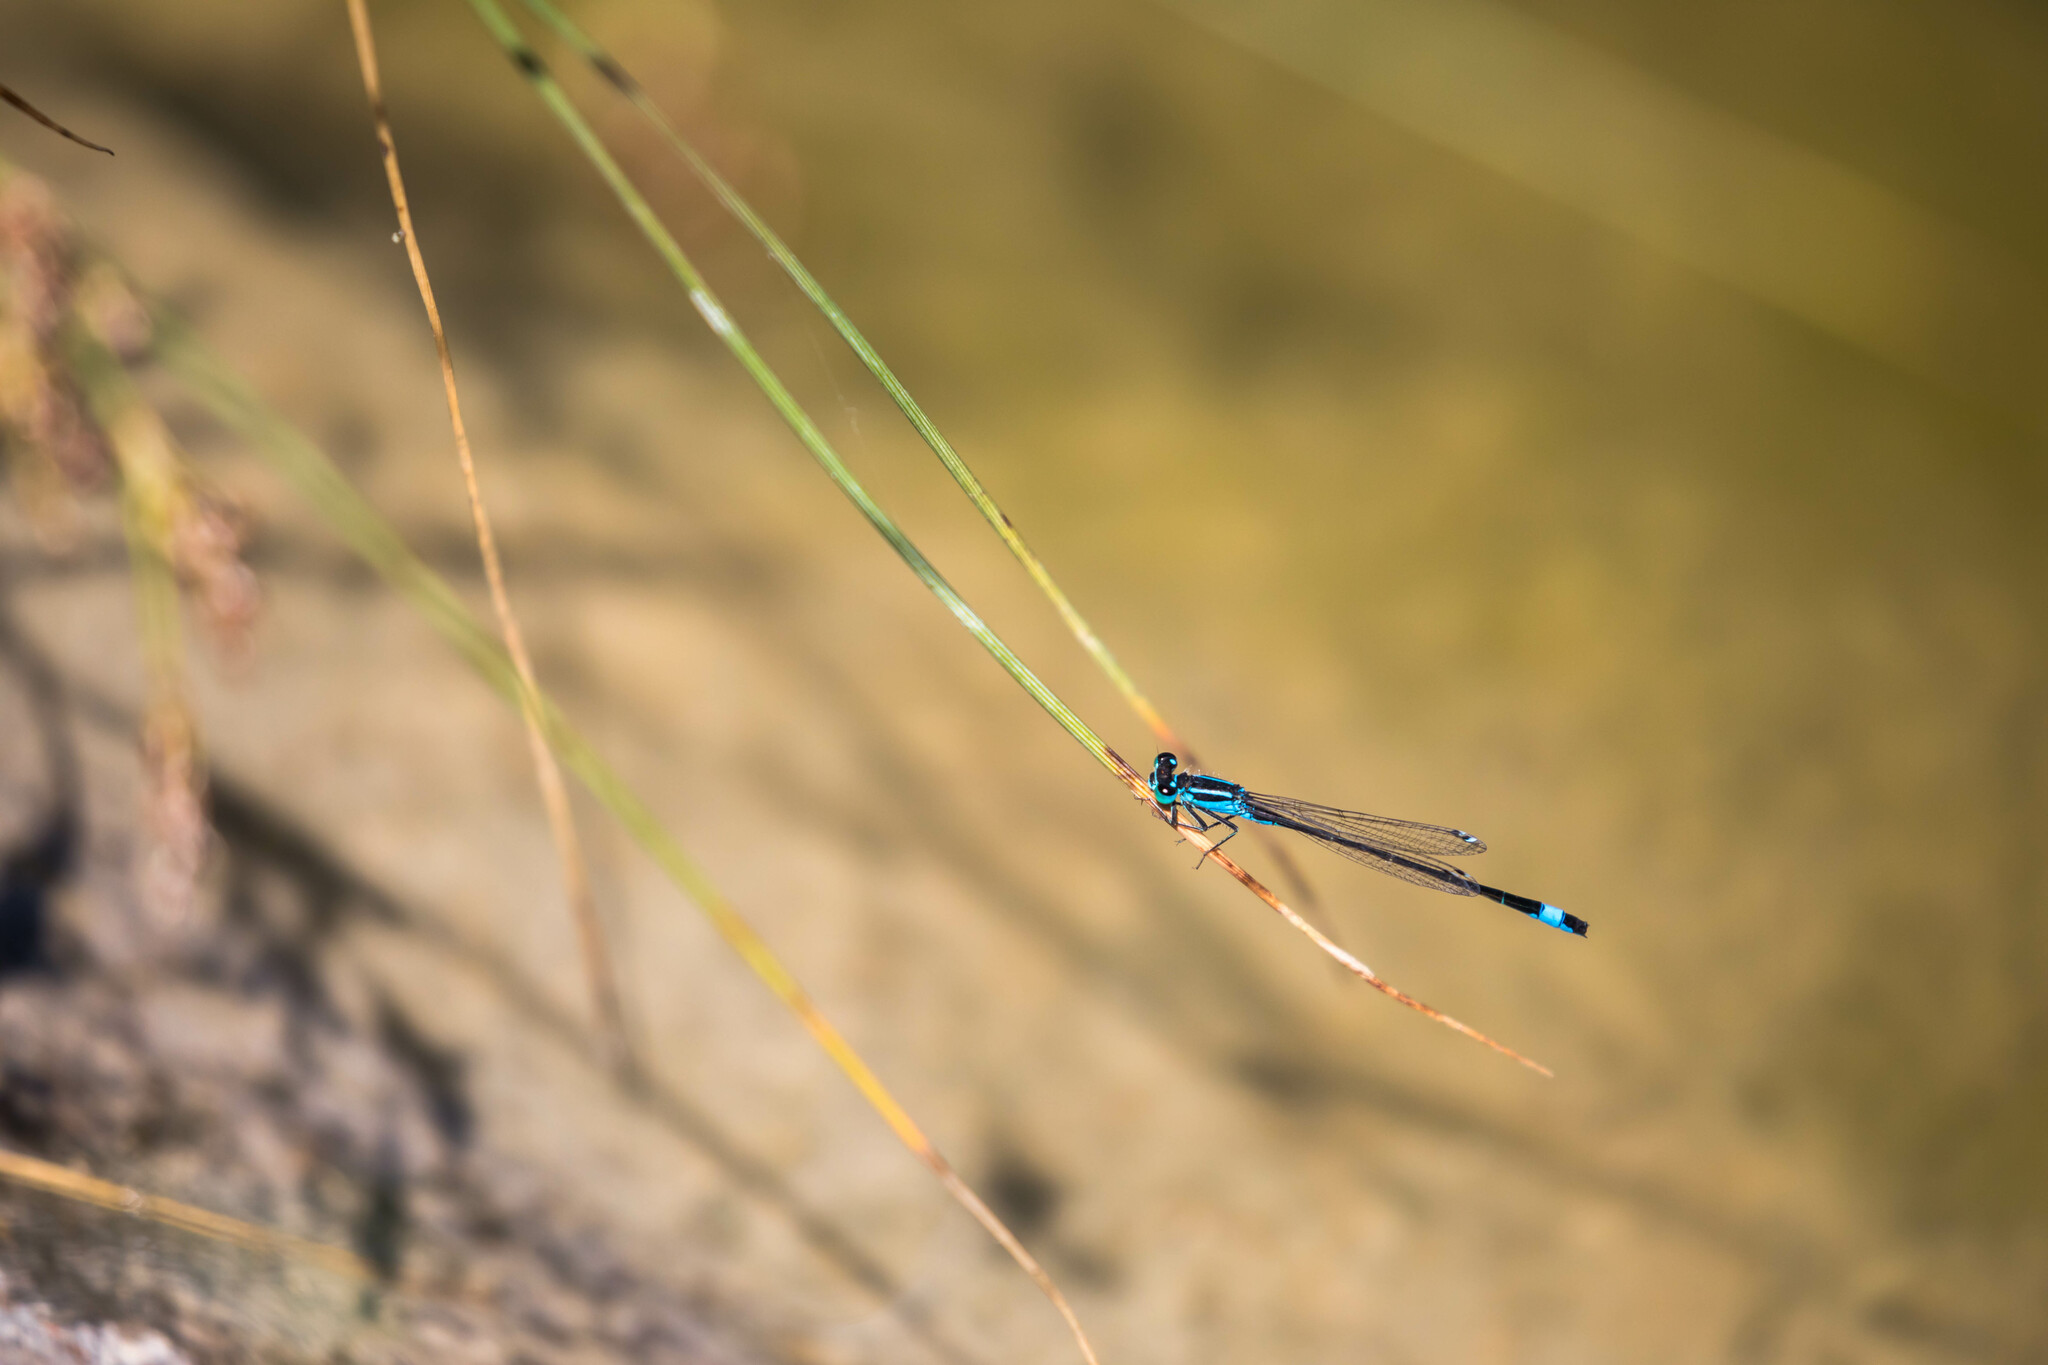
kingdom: Animalia
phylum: Arthropoda
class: Insecta
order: Odonata
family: Coenagrionidae
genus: Ischnura
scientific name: Ischnura elegans
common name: Blue-tailed damselfly
